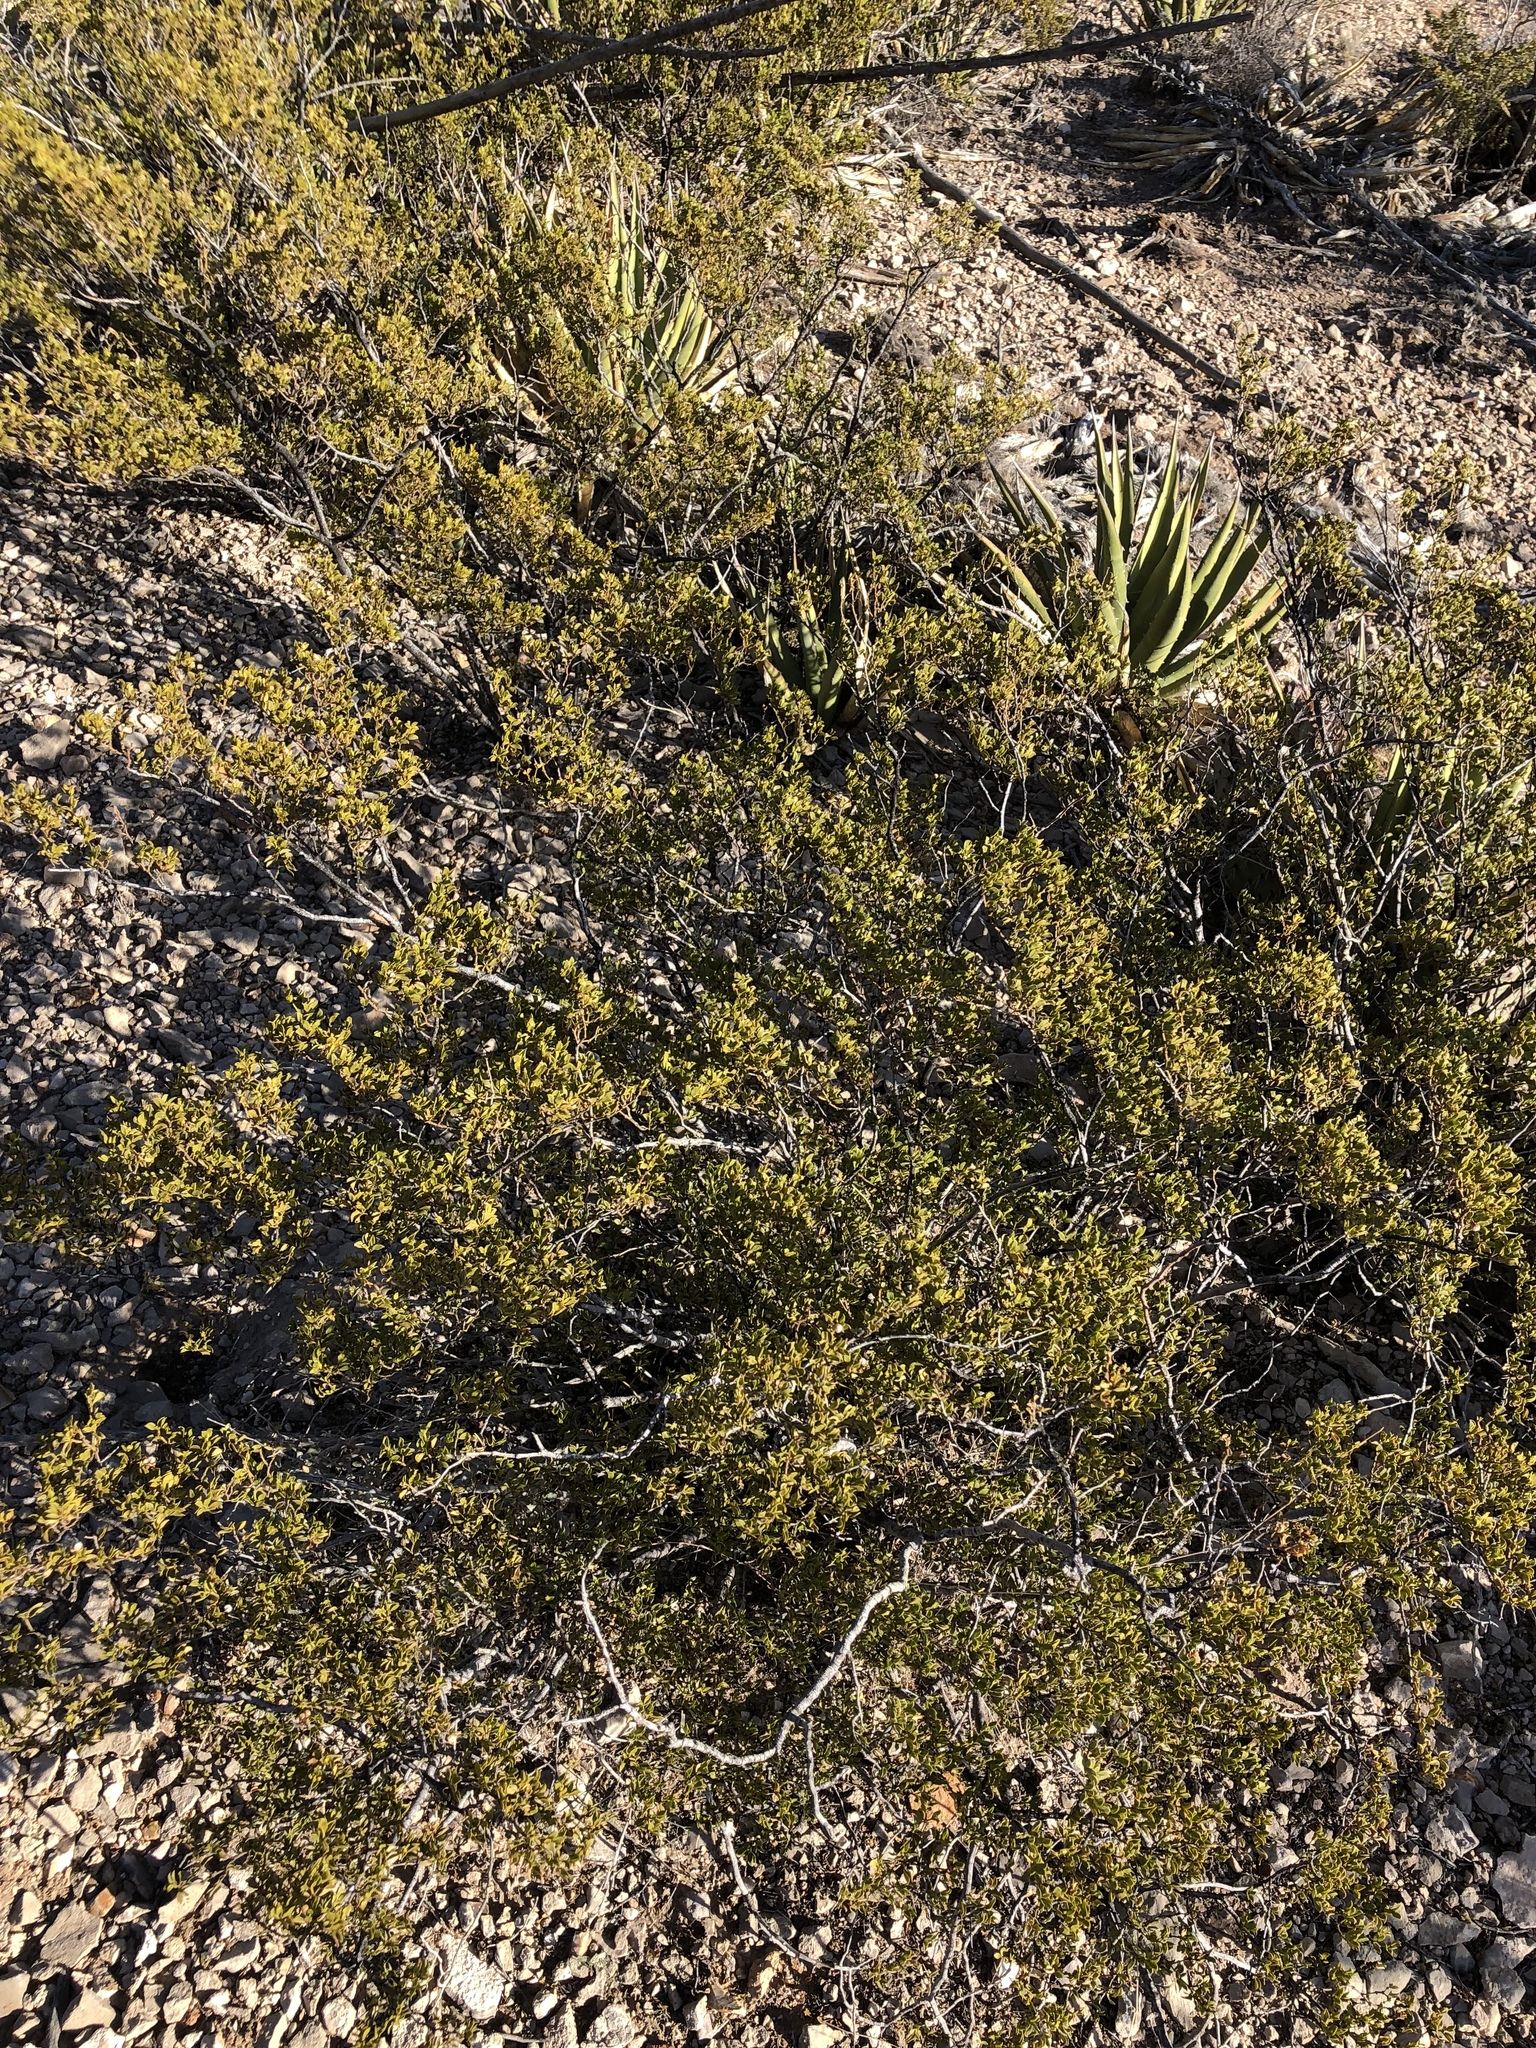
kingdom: Plantae
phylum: Tracheophyta
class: Magnoliopsida
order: Zygophyllales
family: Zygophyllaceae
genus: Larrea
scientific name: Larrea tridentata
